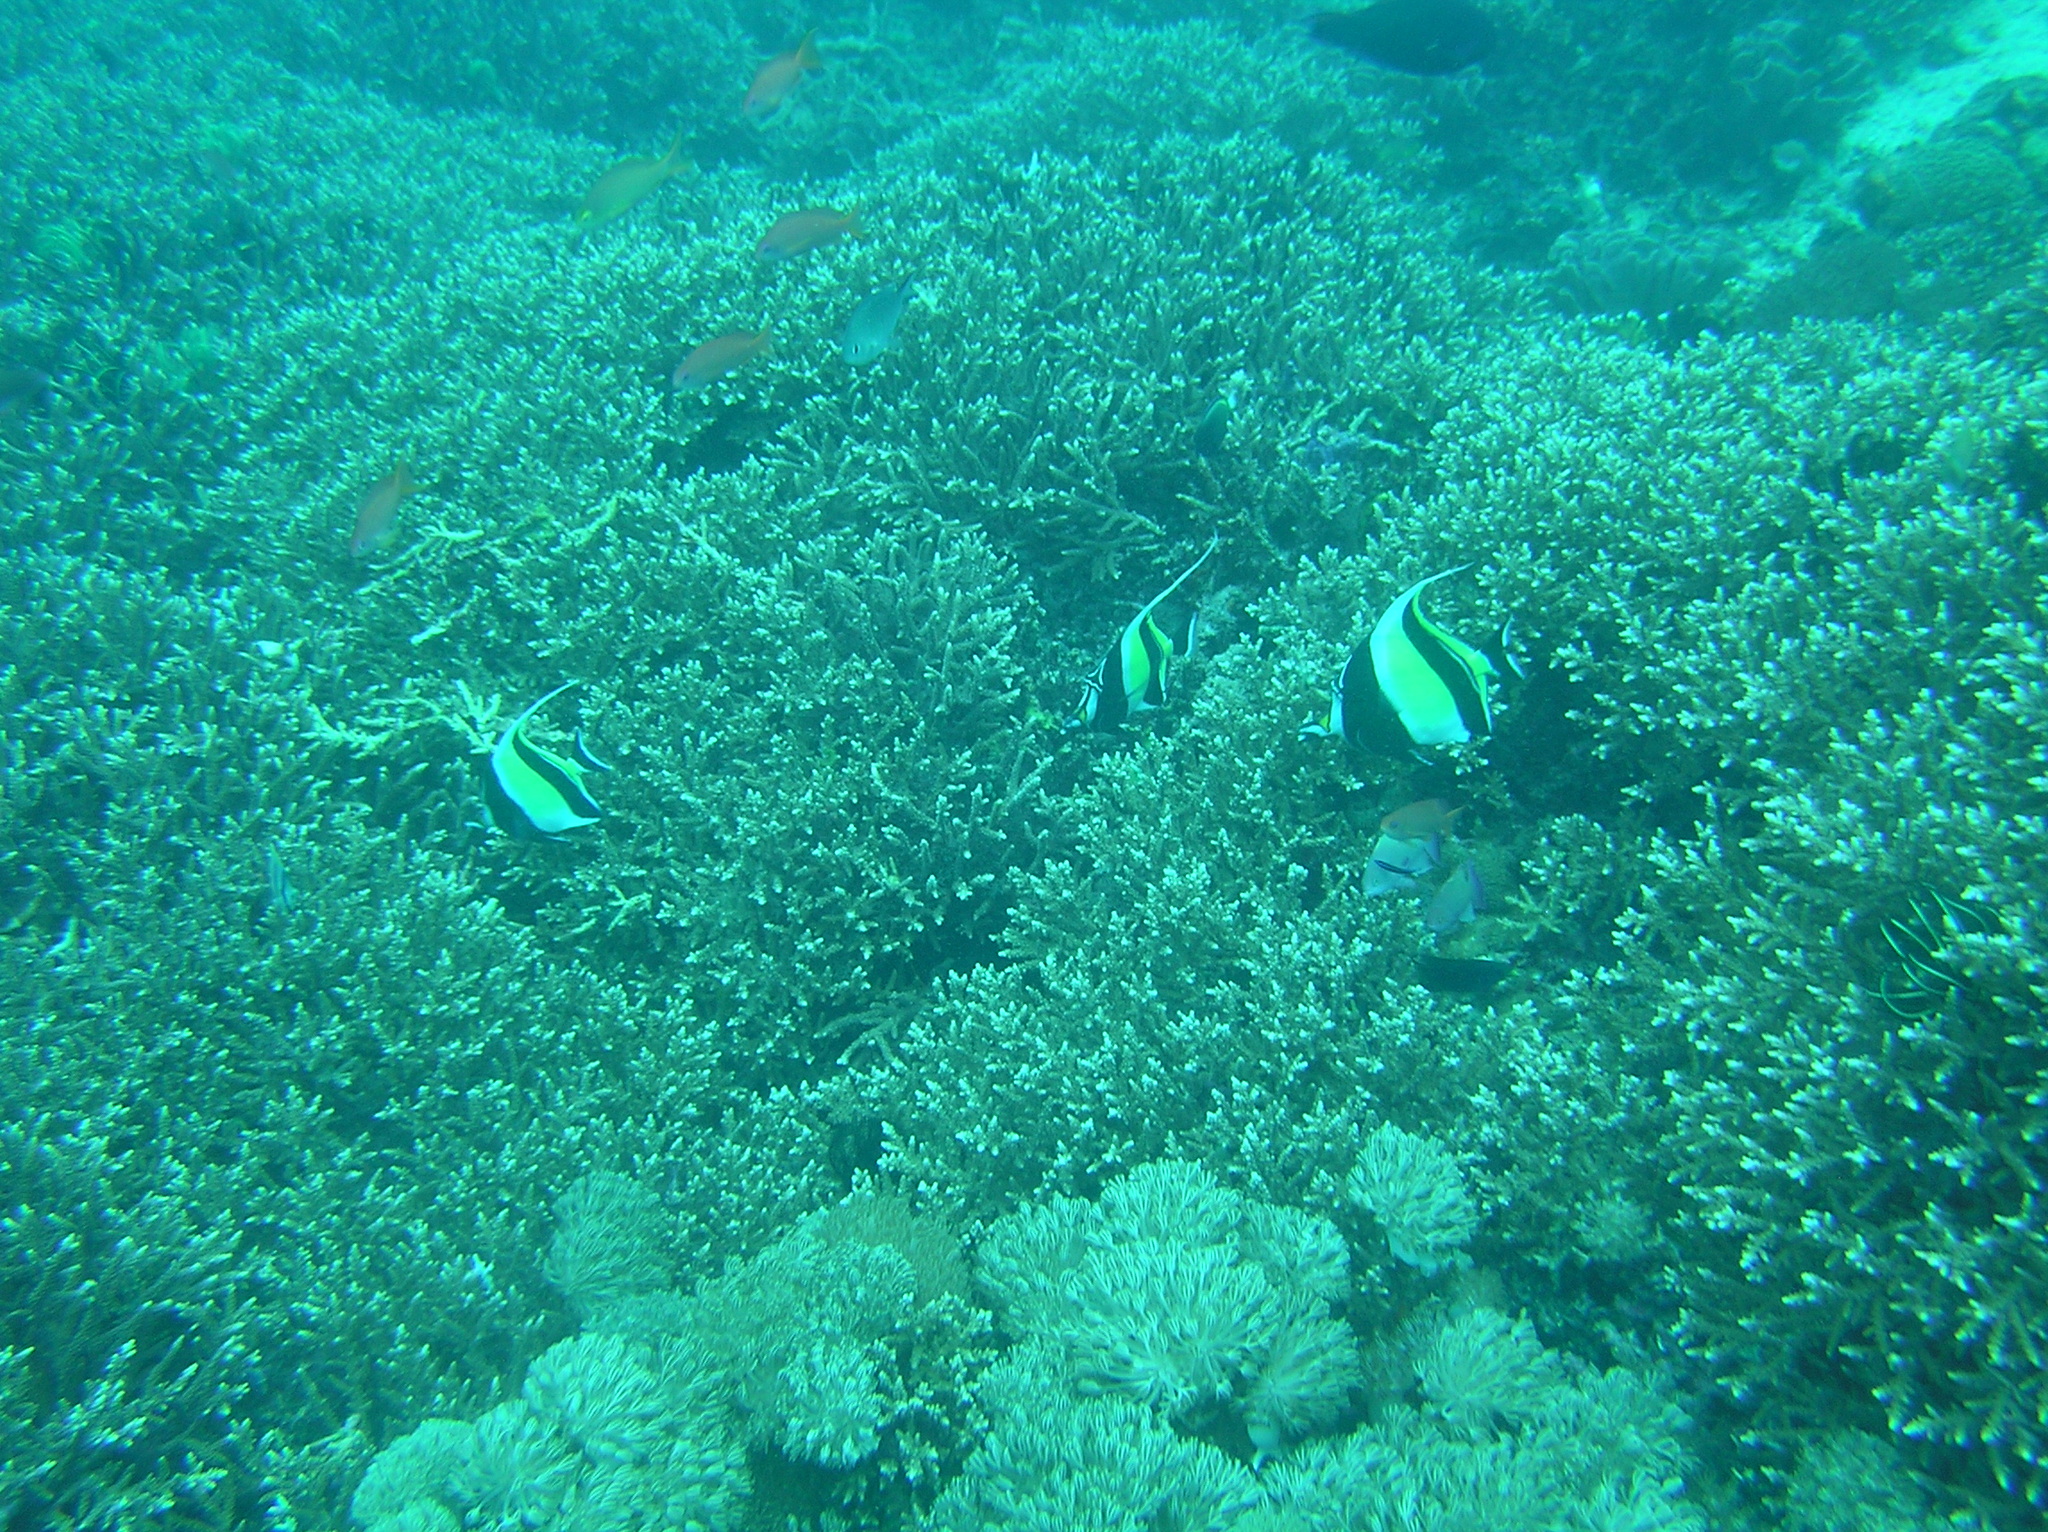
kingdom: Animalia
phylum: Chordata
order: Perciformes
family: Zanclidae
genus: Zanclus
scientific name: Zanclus cornutus
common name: Moorish idol
